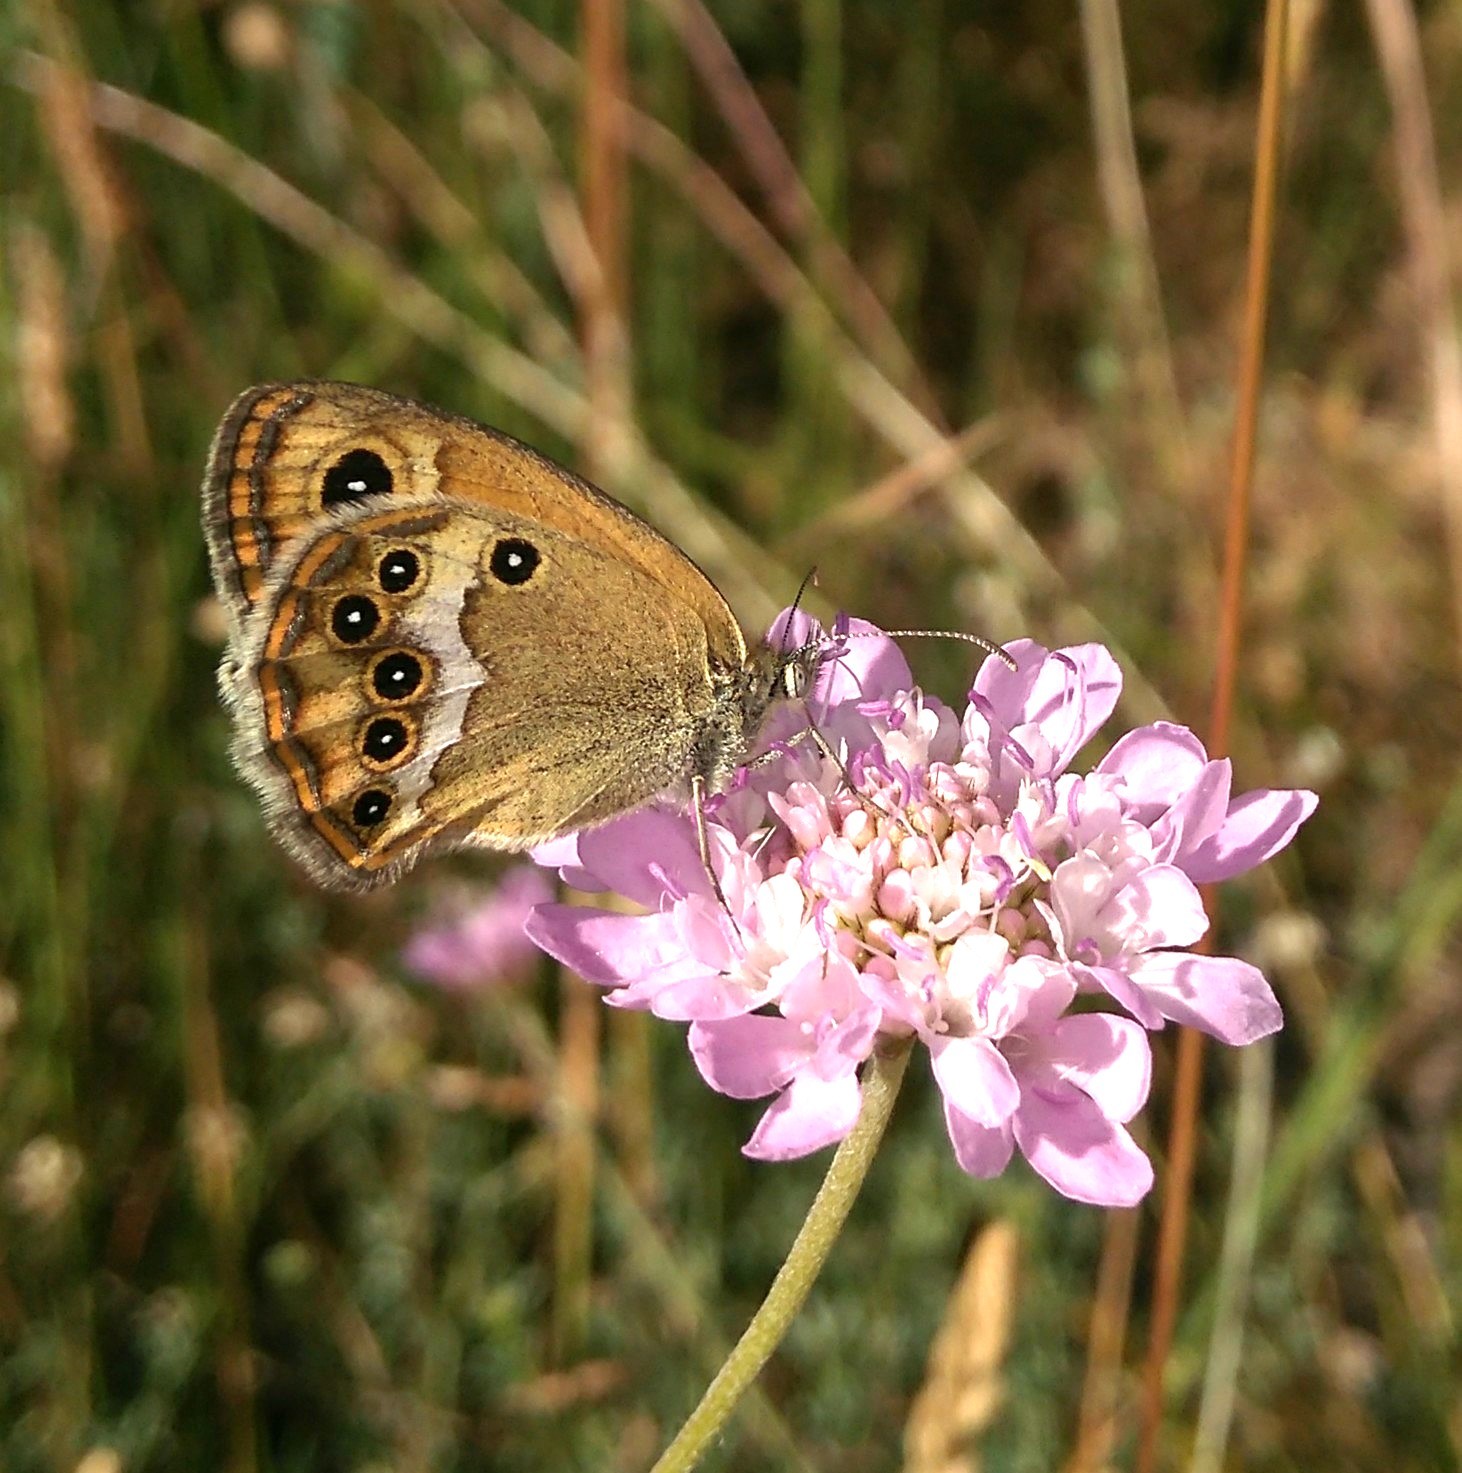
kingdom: Animalia
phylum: Arthropoda
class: Insecta
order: Lepidoptera
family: Nymphalidae
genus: Coenonympha
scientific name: Coenonympha dorus
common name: Dusky heath
